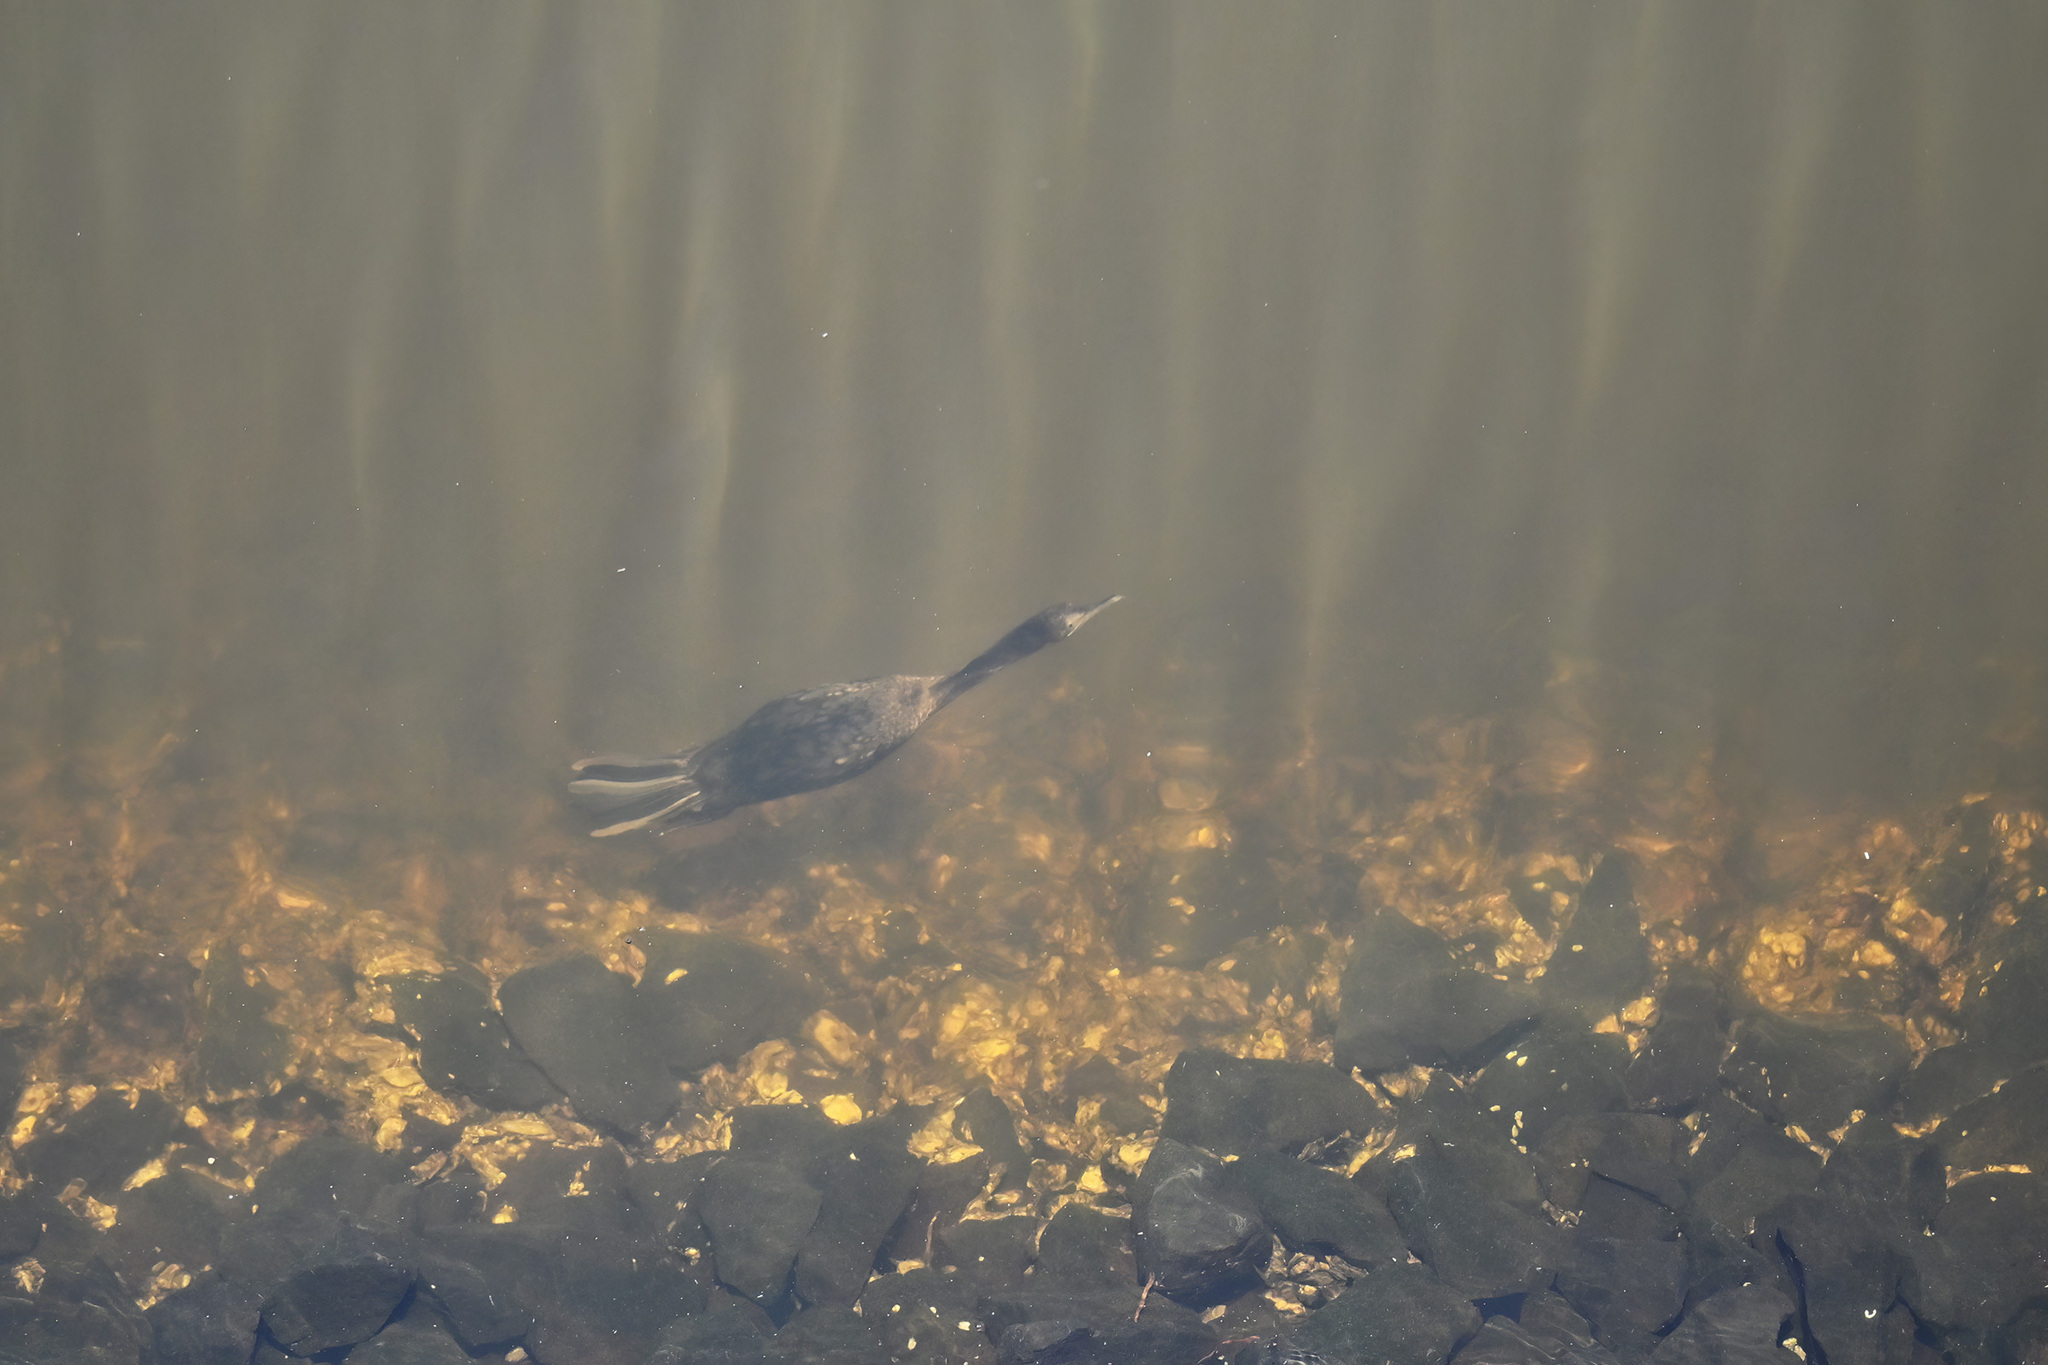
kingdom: Animalia
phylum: Chordata
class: Aves
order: Suliformes
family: Phalacrocoracidae
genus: Phalacrocorax
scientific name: Phalacrocorax sulcirostris
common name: Little black cormorant
